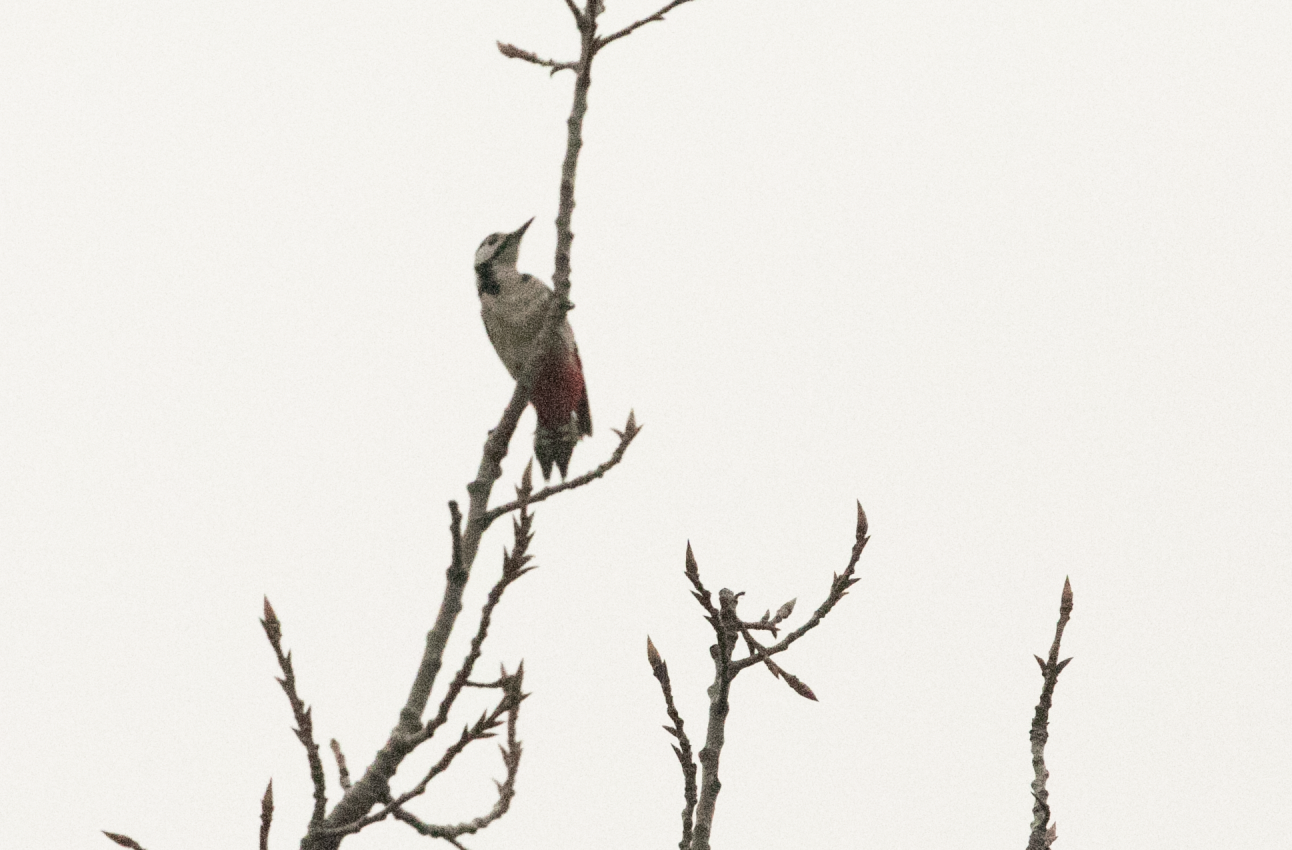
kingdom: Animalia
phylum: Chordata
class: Aves
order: Piciformes
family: Picidae
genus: Dendrocopos
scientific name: Dendrocopos major
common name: Great spotted woodpecker
